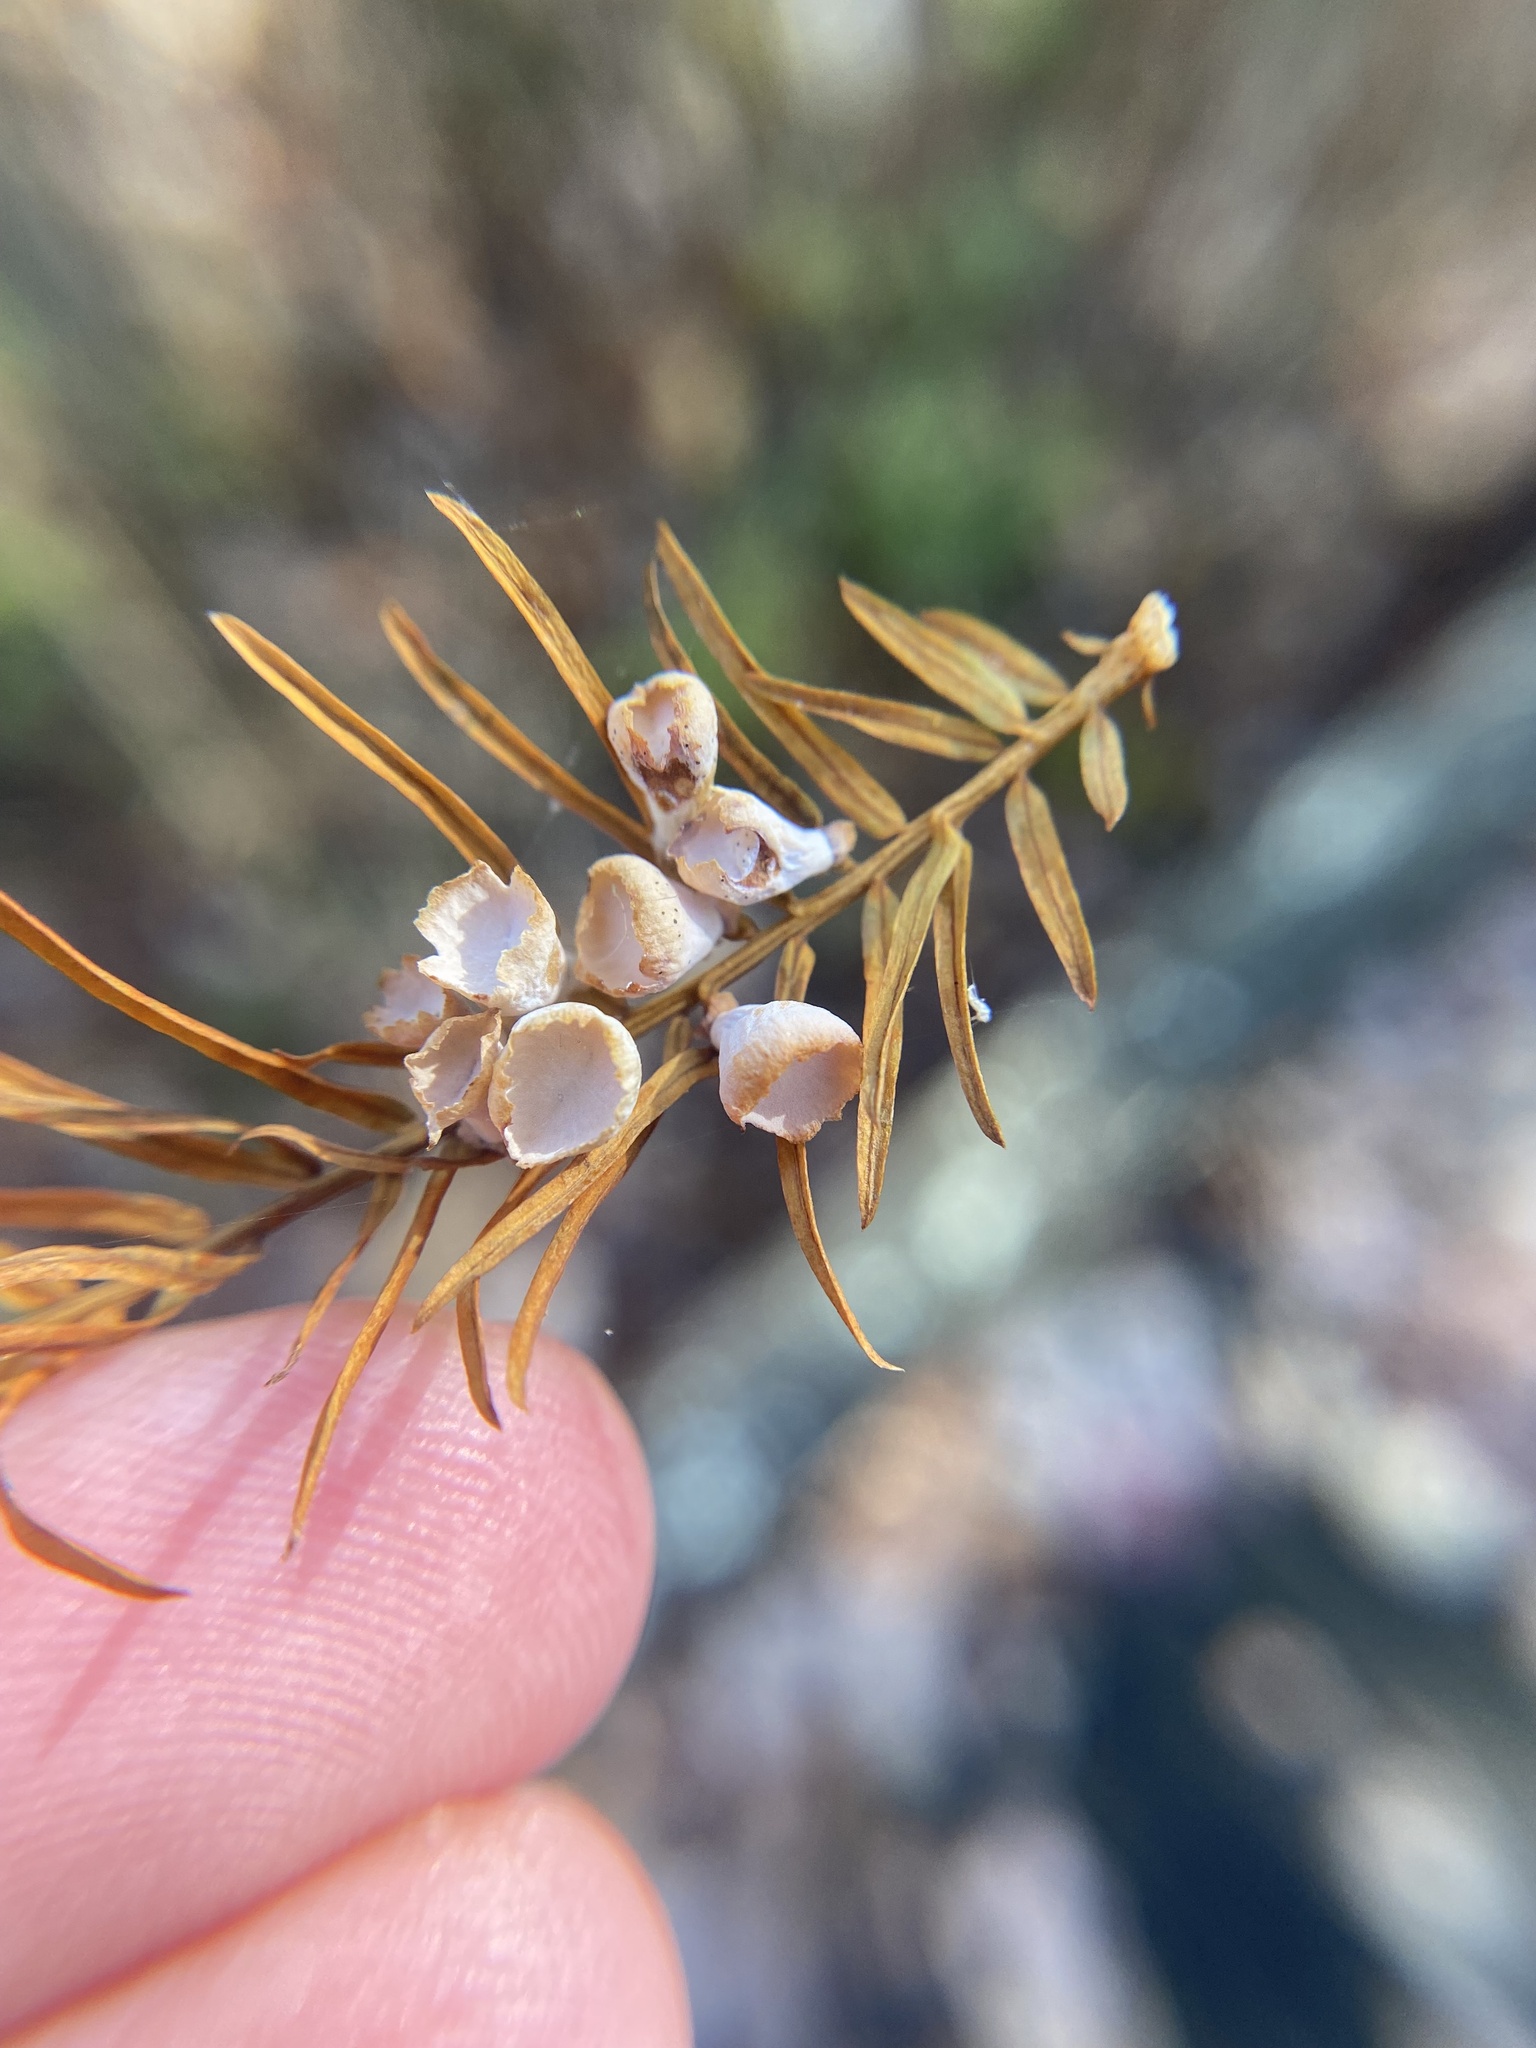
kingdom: Animalia
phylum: Arthropoda
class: Insecta
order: Diptera
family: Cecidomyiidae
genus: Taxodiomyia
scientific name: Taxodiomyia cupressi
